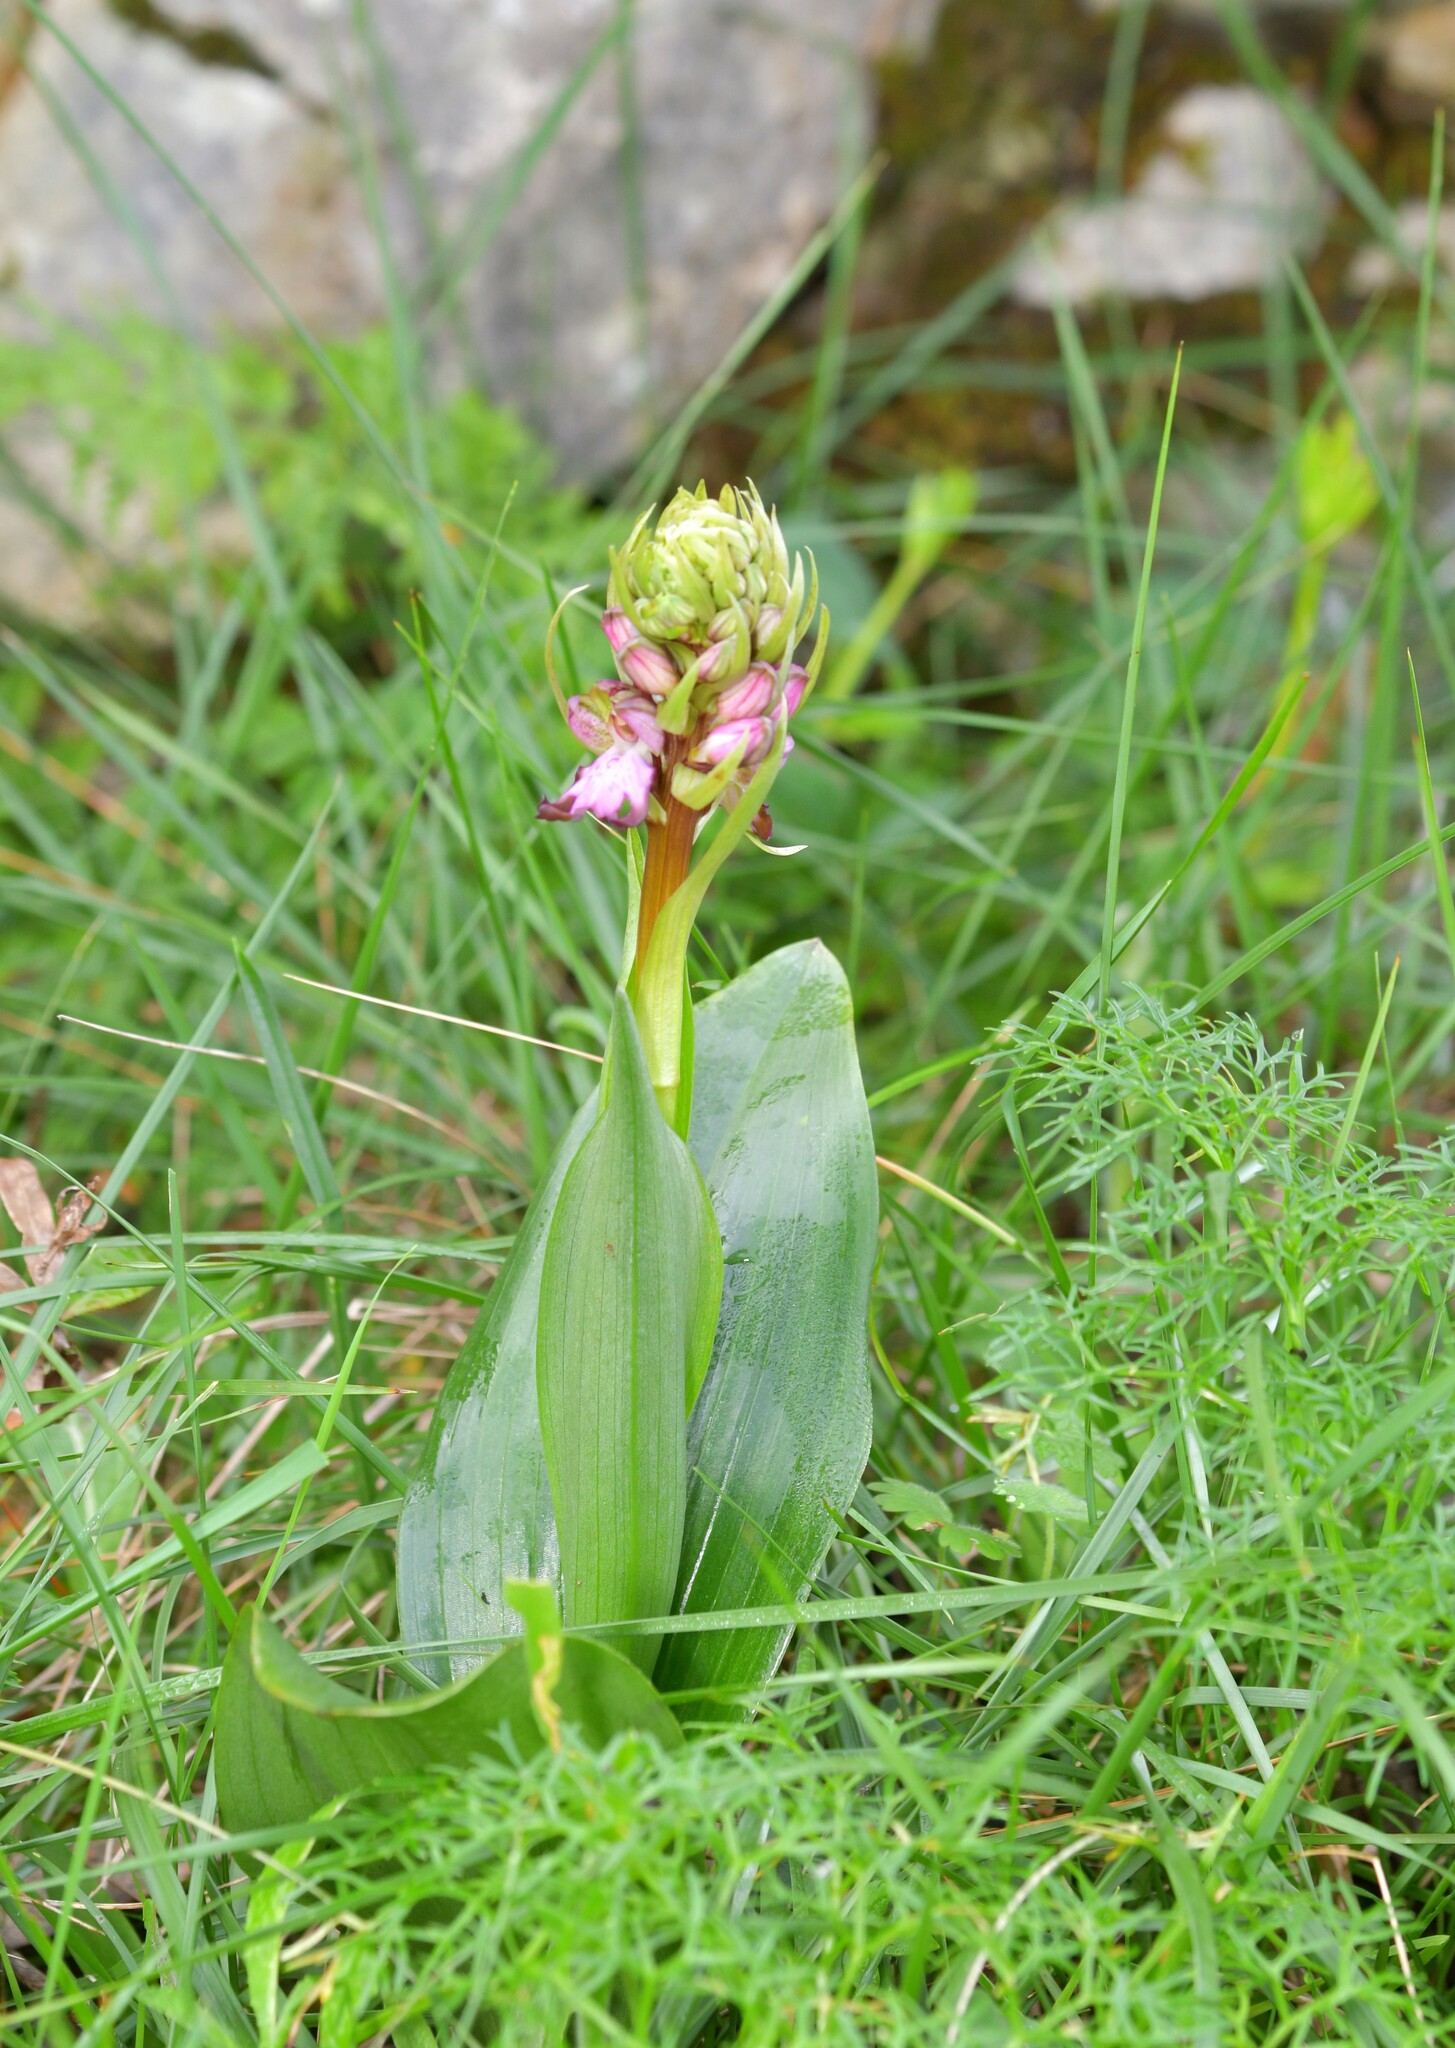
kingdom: Plantae
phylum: Tracheophyta
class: Liliopsida
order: Asparagales
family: Orchidaceae
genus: Himantoglossum
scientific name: Himantoglossum robertianum
